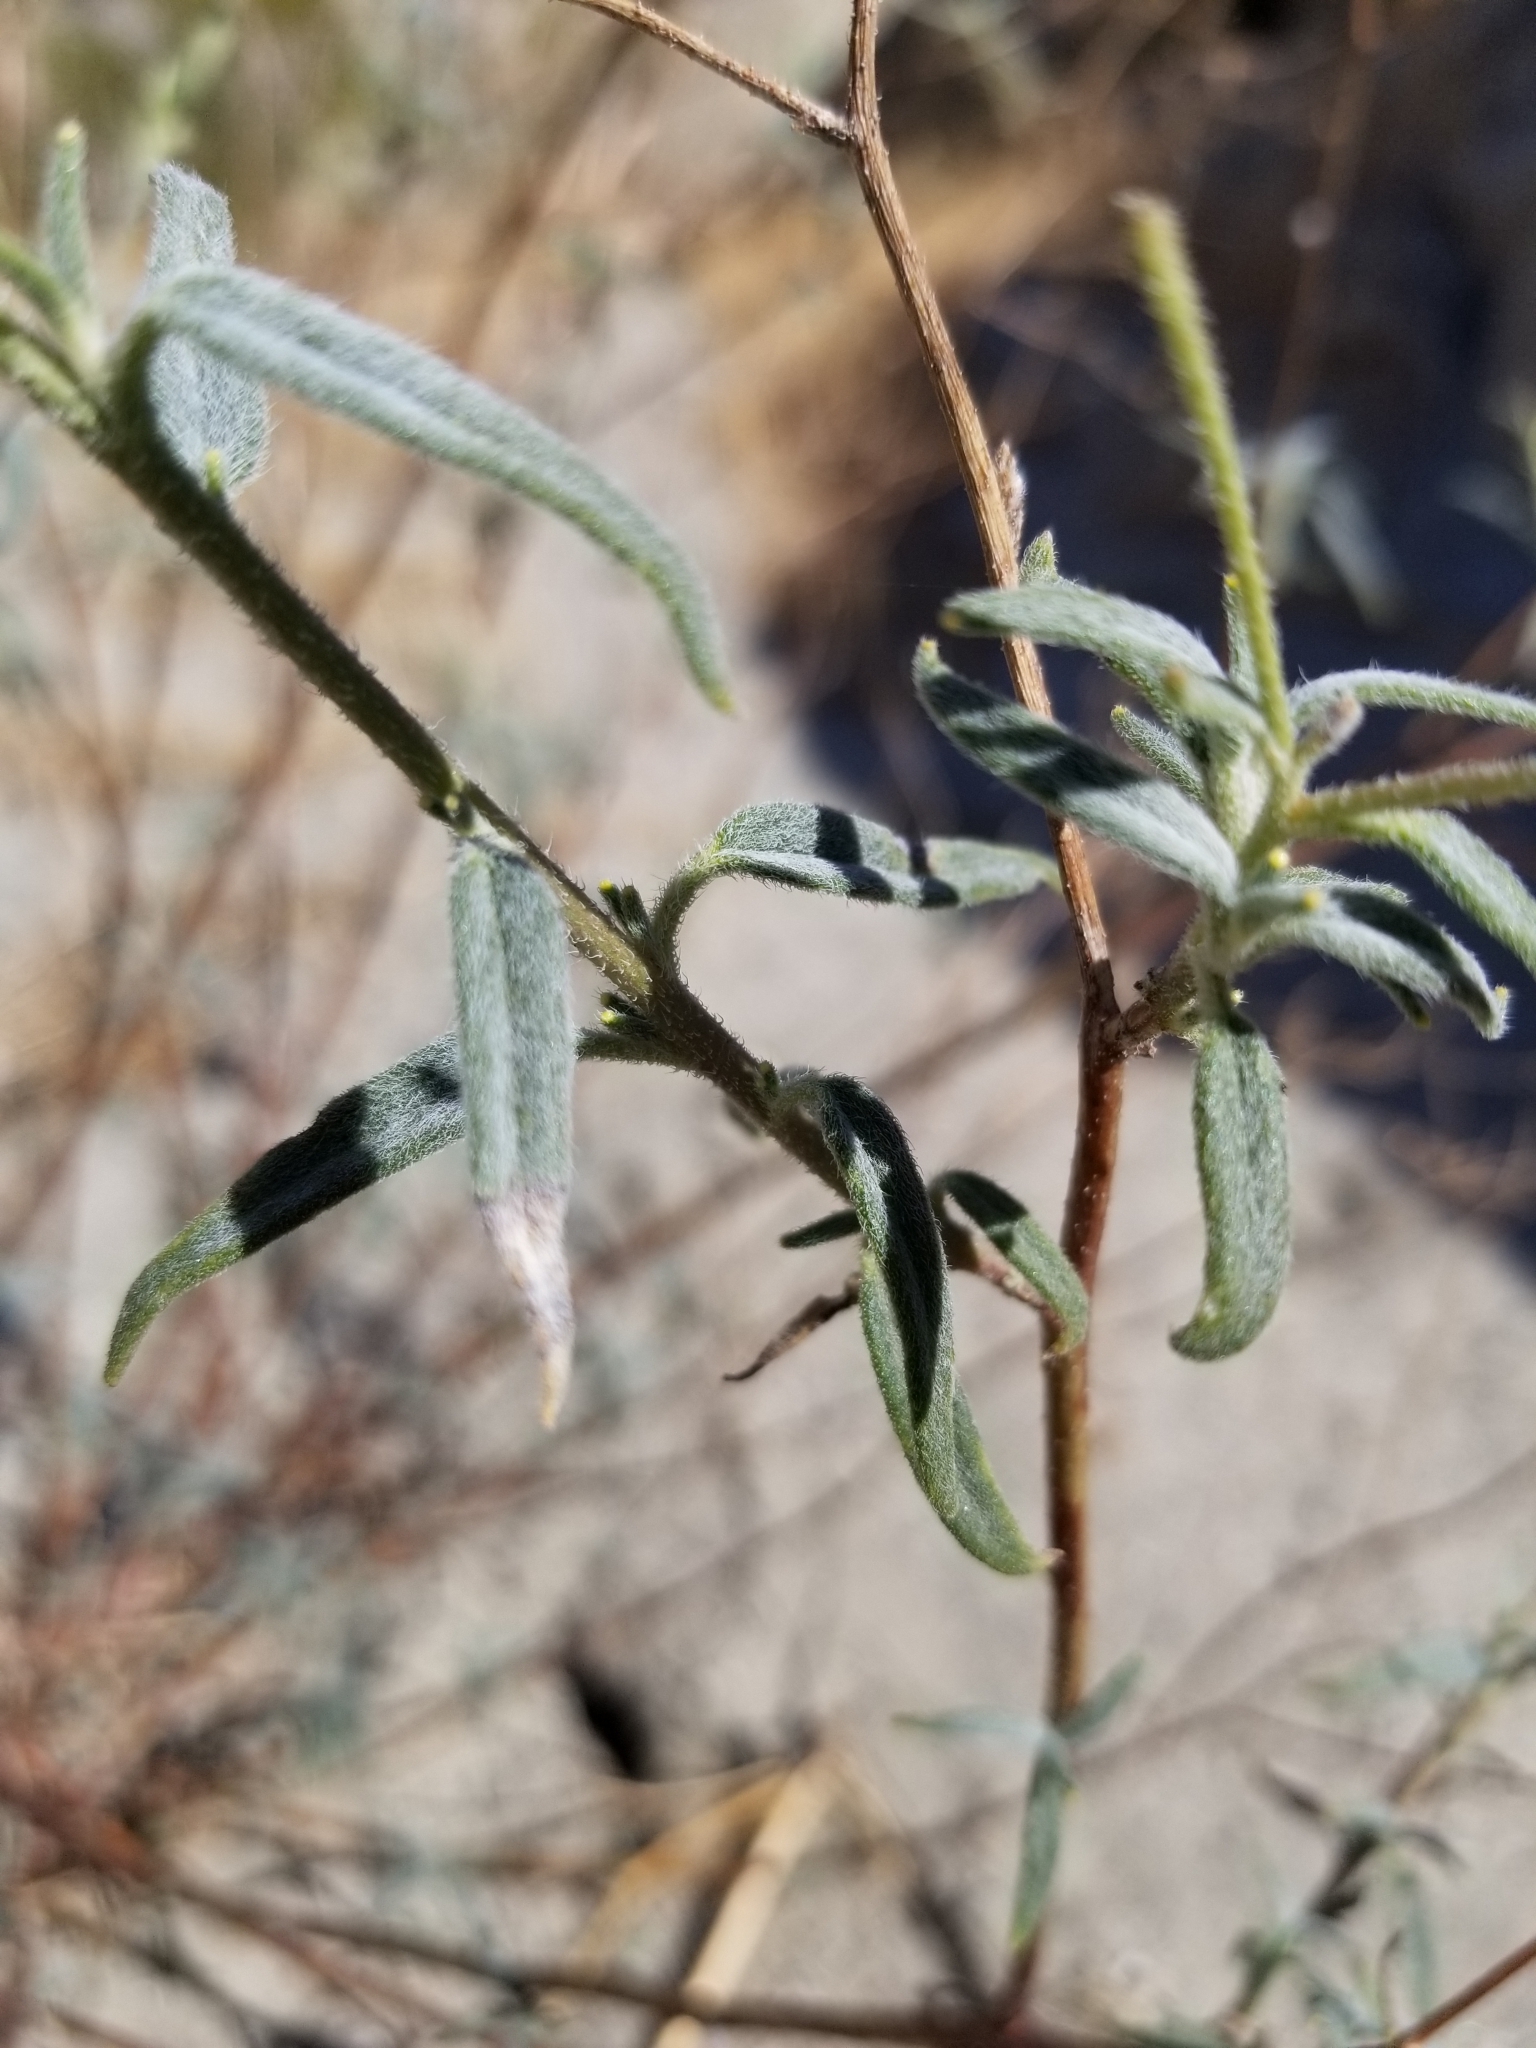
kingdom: Plantae
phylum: Tracheophyta
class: Magnoliopsida
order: Asterales
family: Asteraceae
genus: Palafoxia
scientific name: Palafoxia arida
